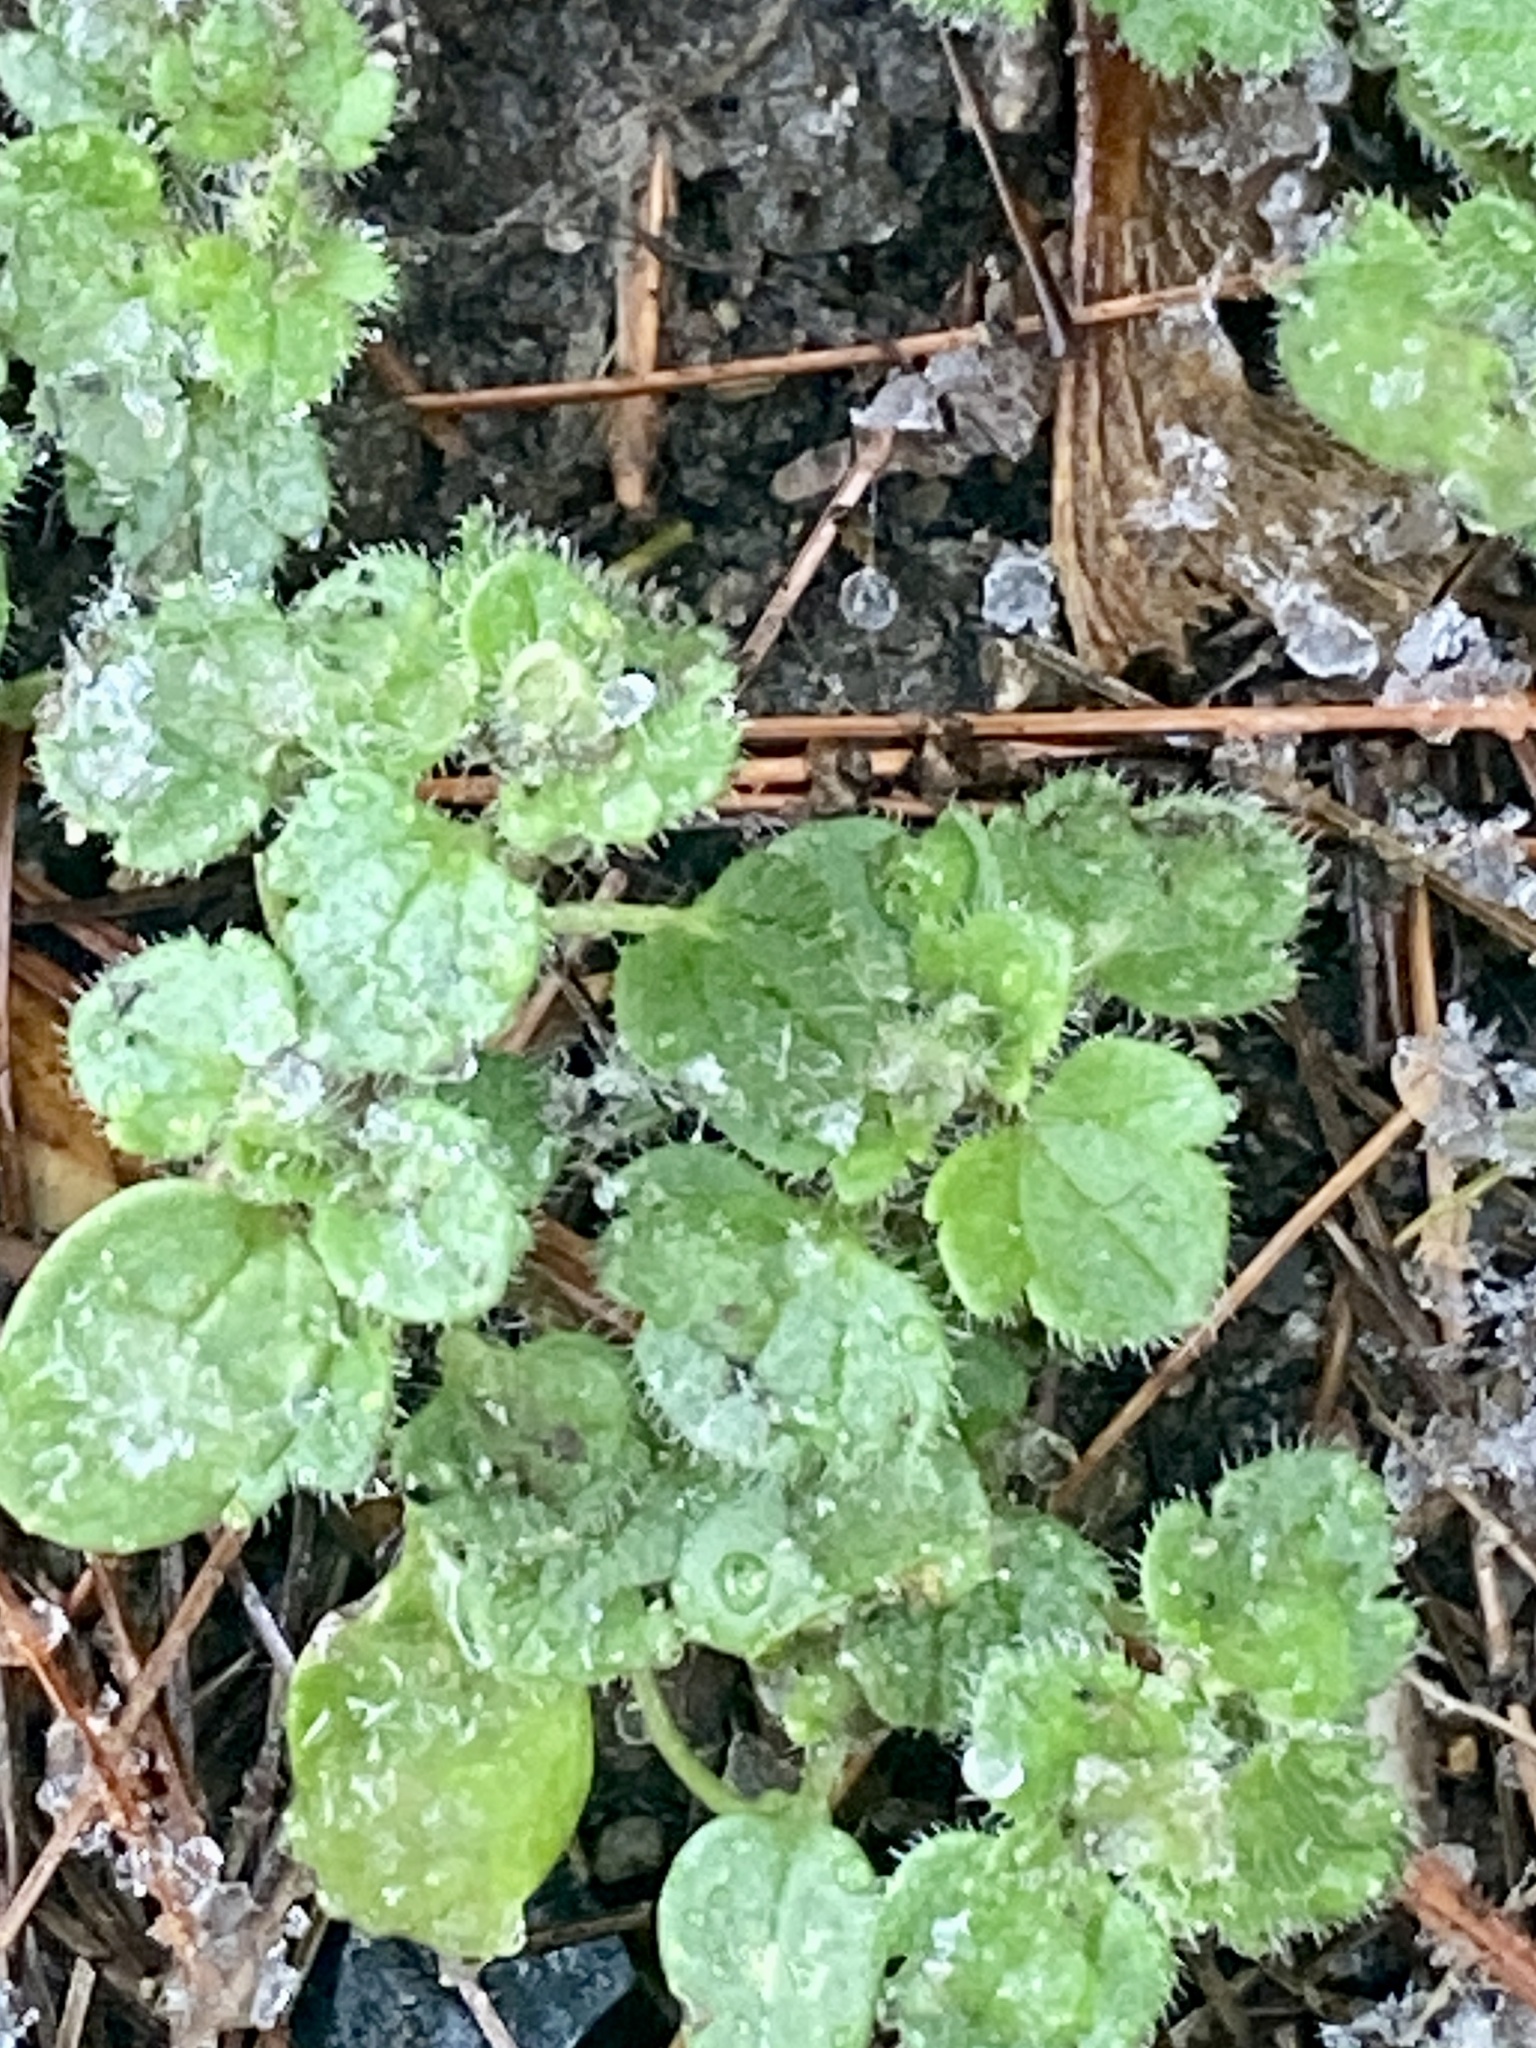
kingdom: Plantae
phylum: Tracheophyta
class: Magnoliopsida
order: Lamiales
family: Plantaginaceae
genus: Veronica
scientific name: Veronica hederifolia
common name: Ivy-leaved speedwell
